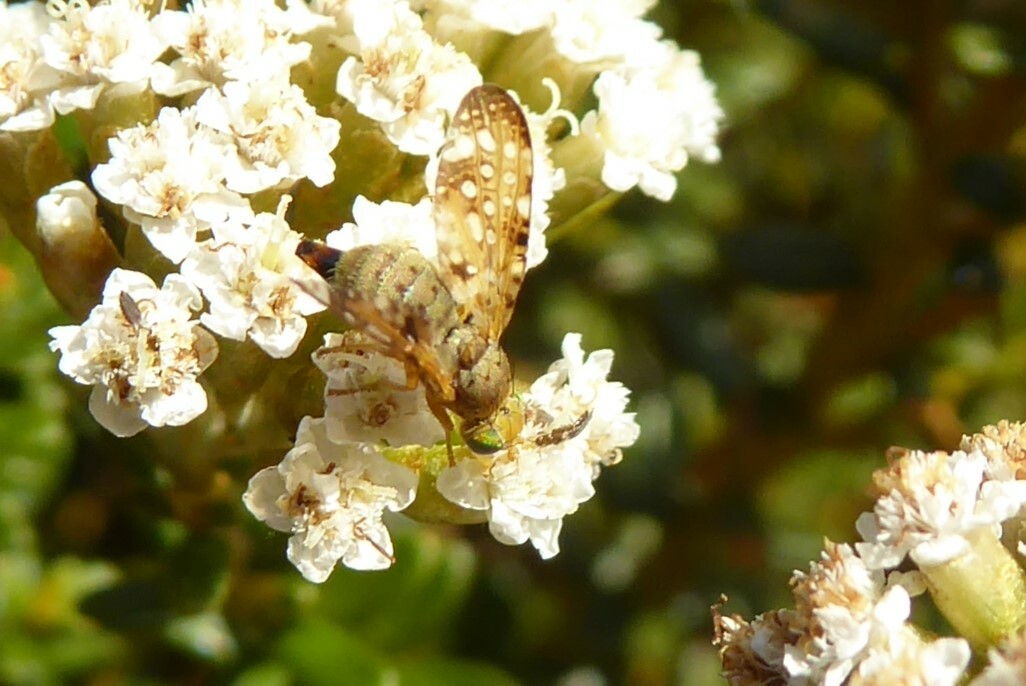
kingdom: Animalia
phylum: Arthropoda
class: Insecta
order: Diptera
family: Tephritidae
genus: Austrotephritis
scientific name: Austrotephritis
